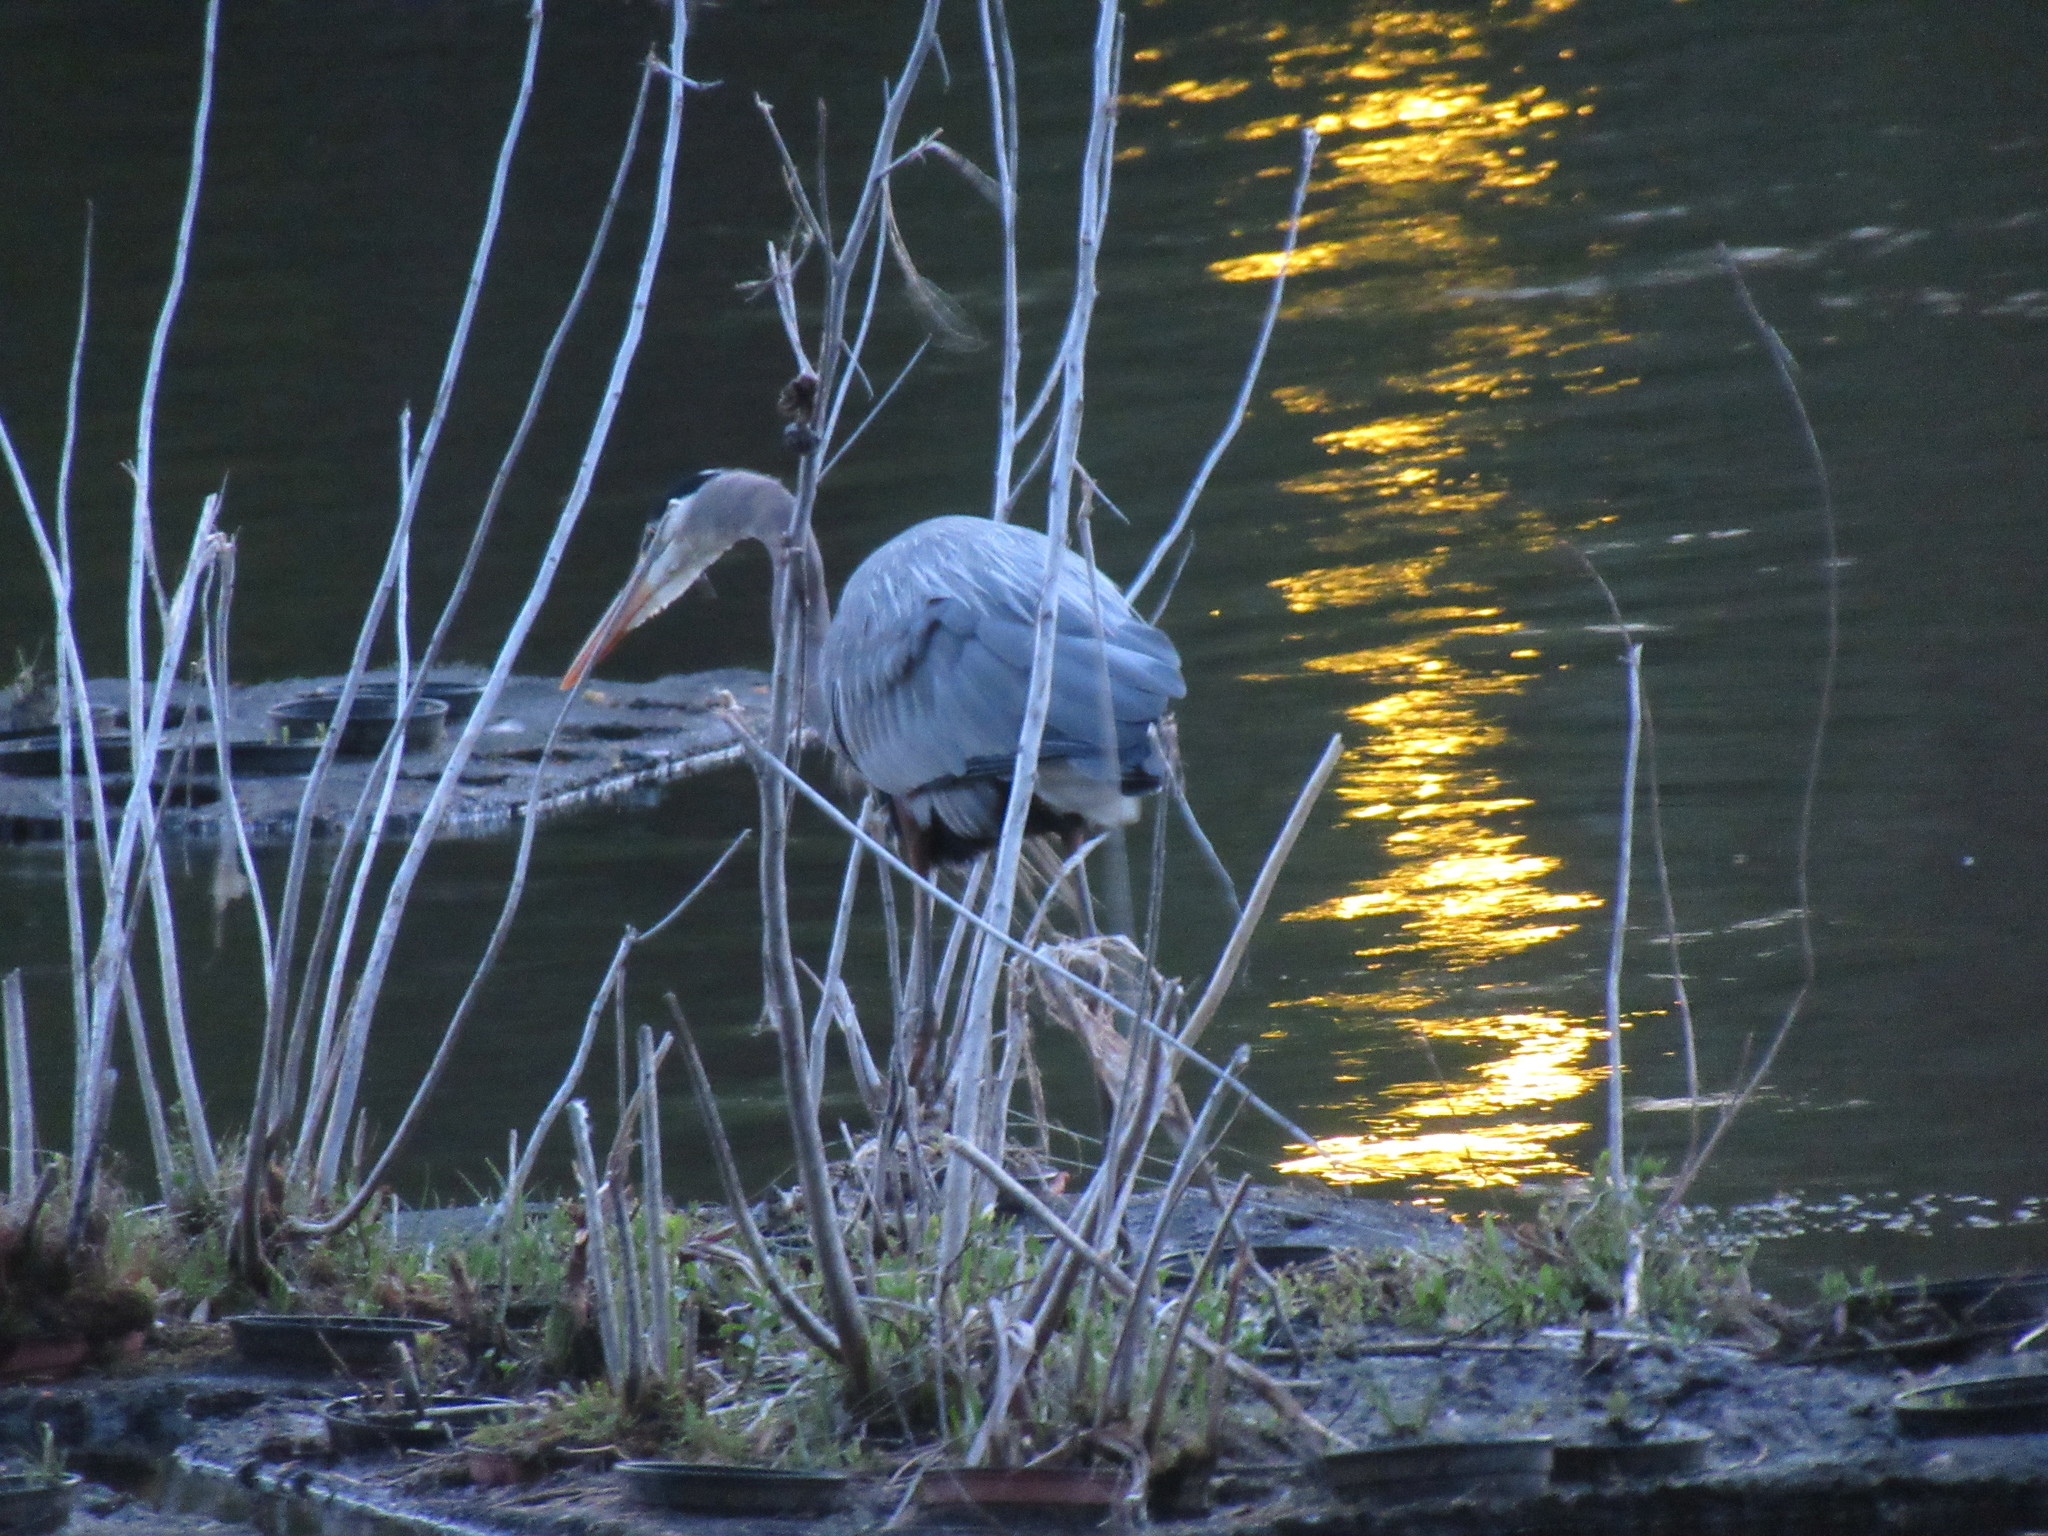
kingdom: Animalia
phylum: Chordata
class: Aves
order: Pelecaniformes
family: Ardeidae
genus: Ardea
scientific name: Ardea herodias
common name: Great blue heron
